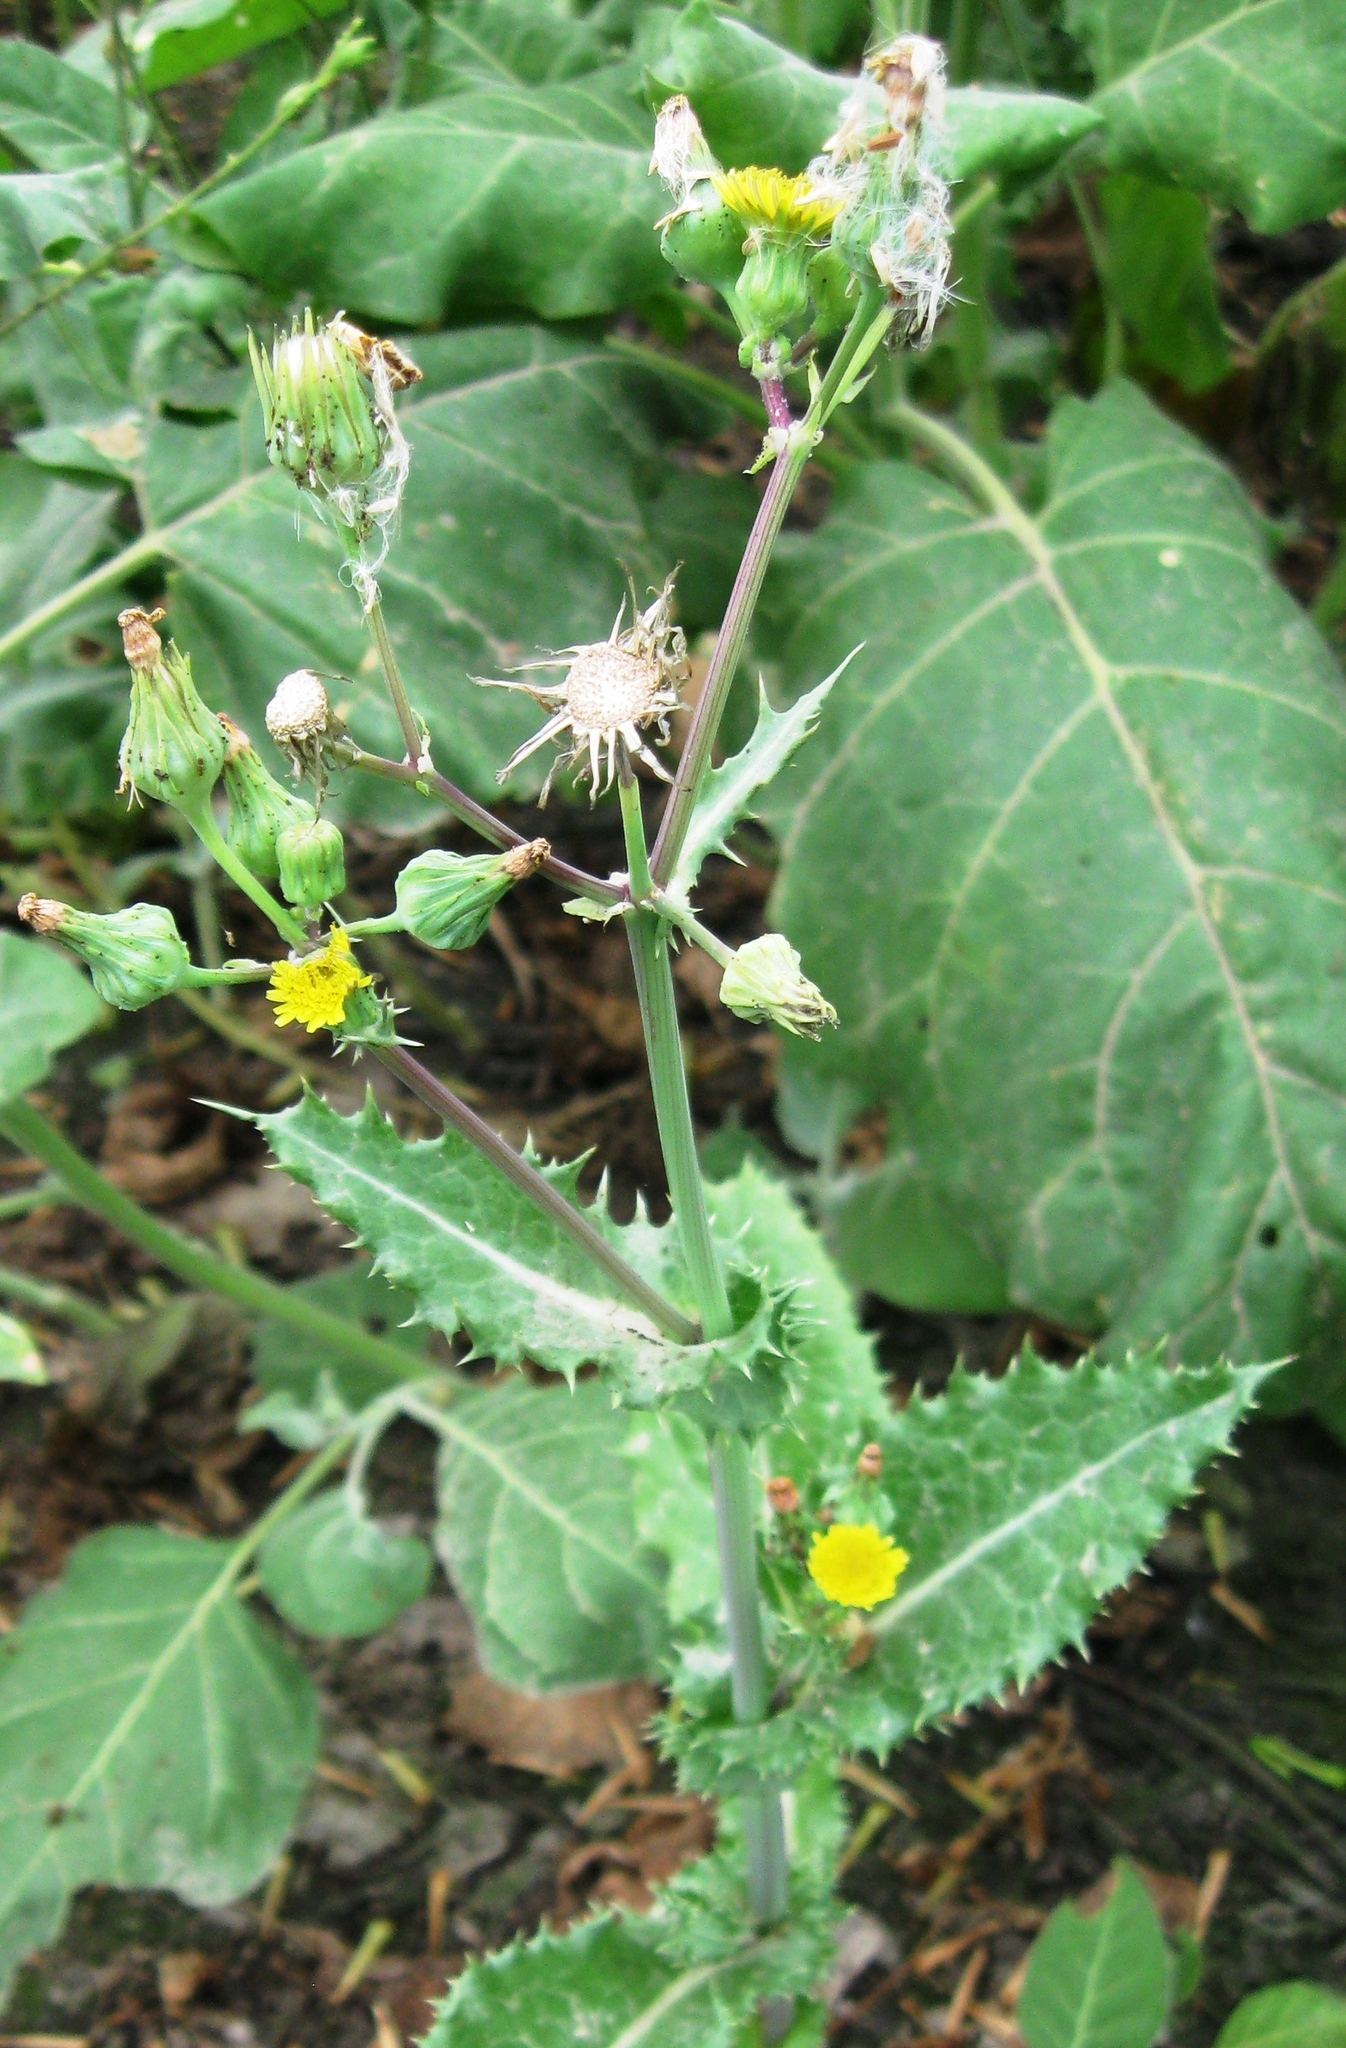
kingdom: Plantae
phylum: Tracheophyta
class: Magnoliopsida
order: Asterales
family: Asteraceae
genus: Sonchus
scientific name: Sonchus oleraceus
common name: Common sowthistle
